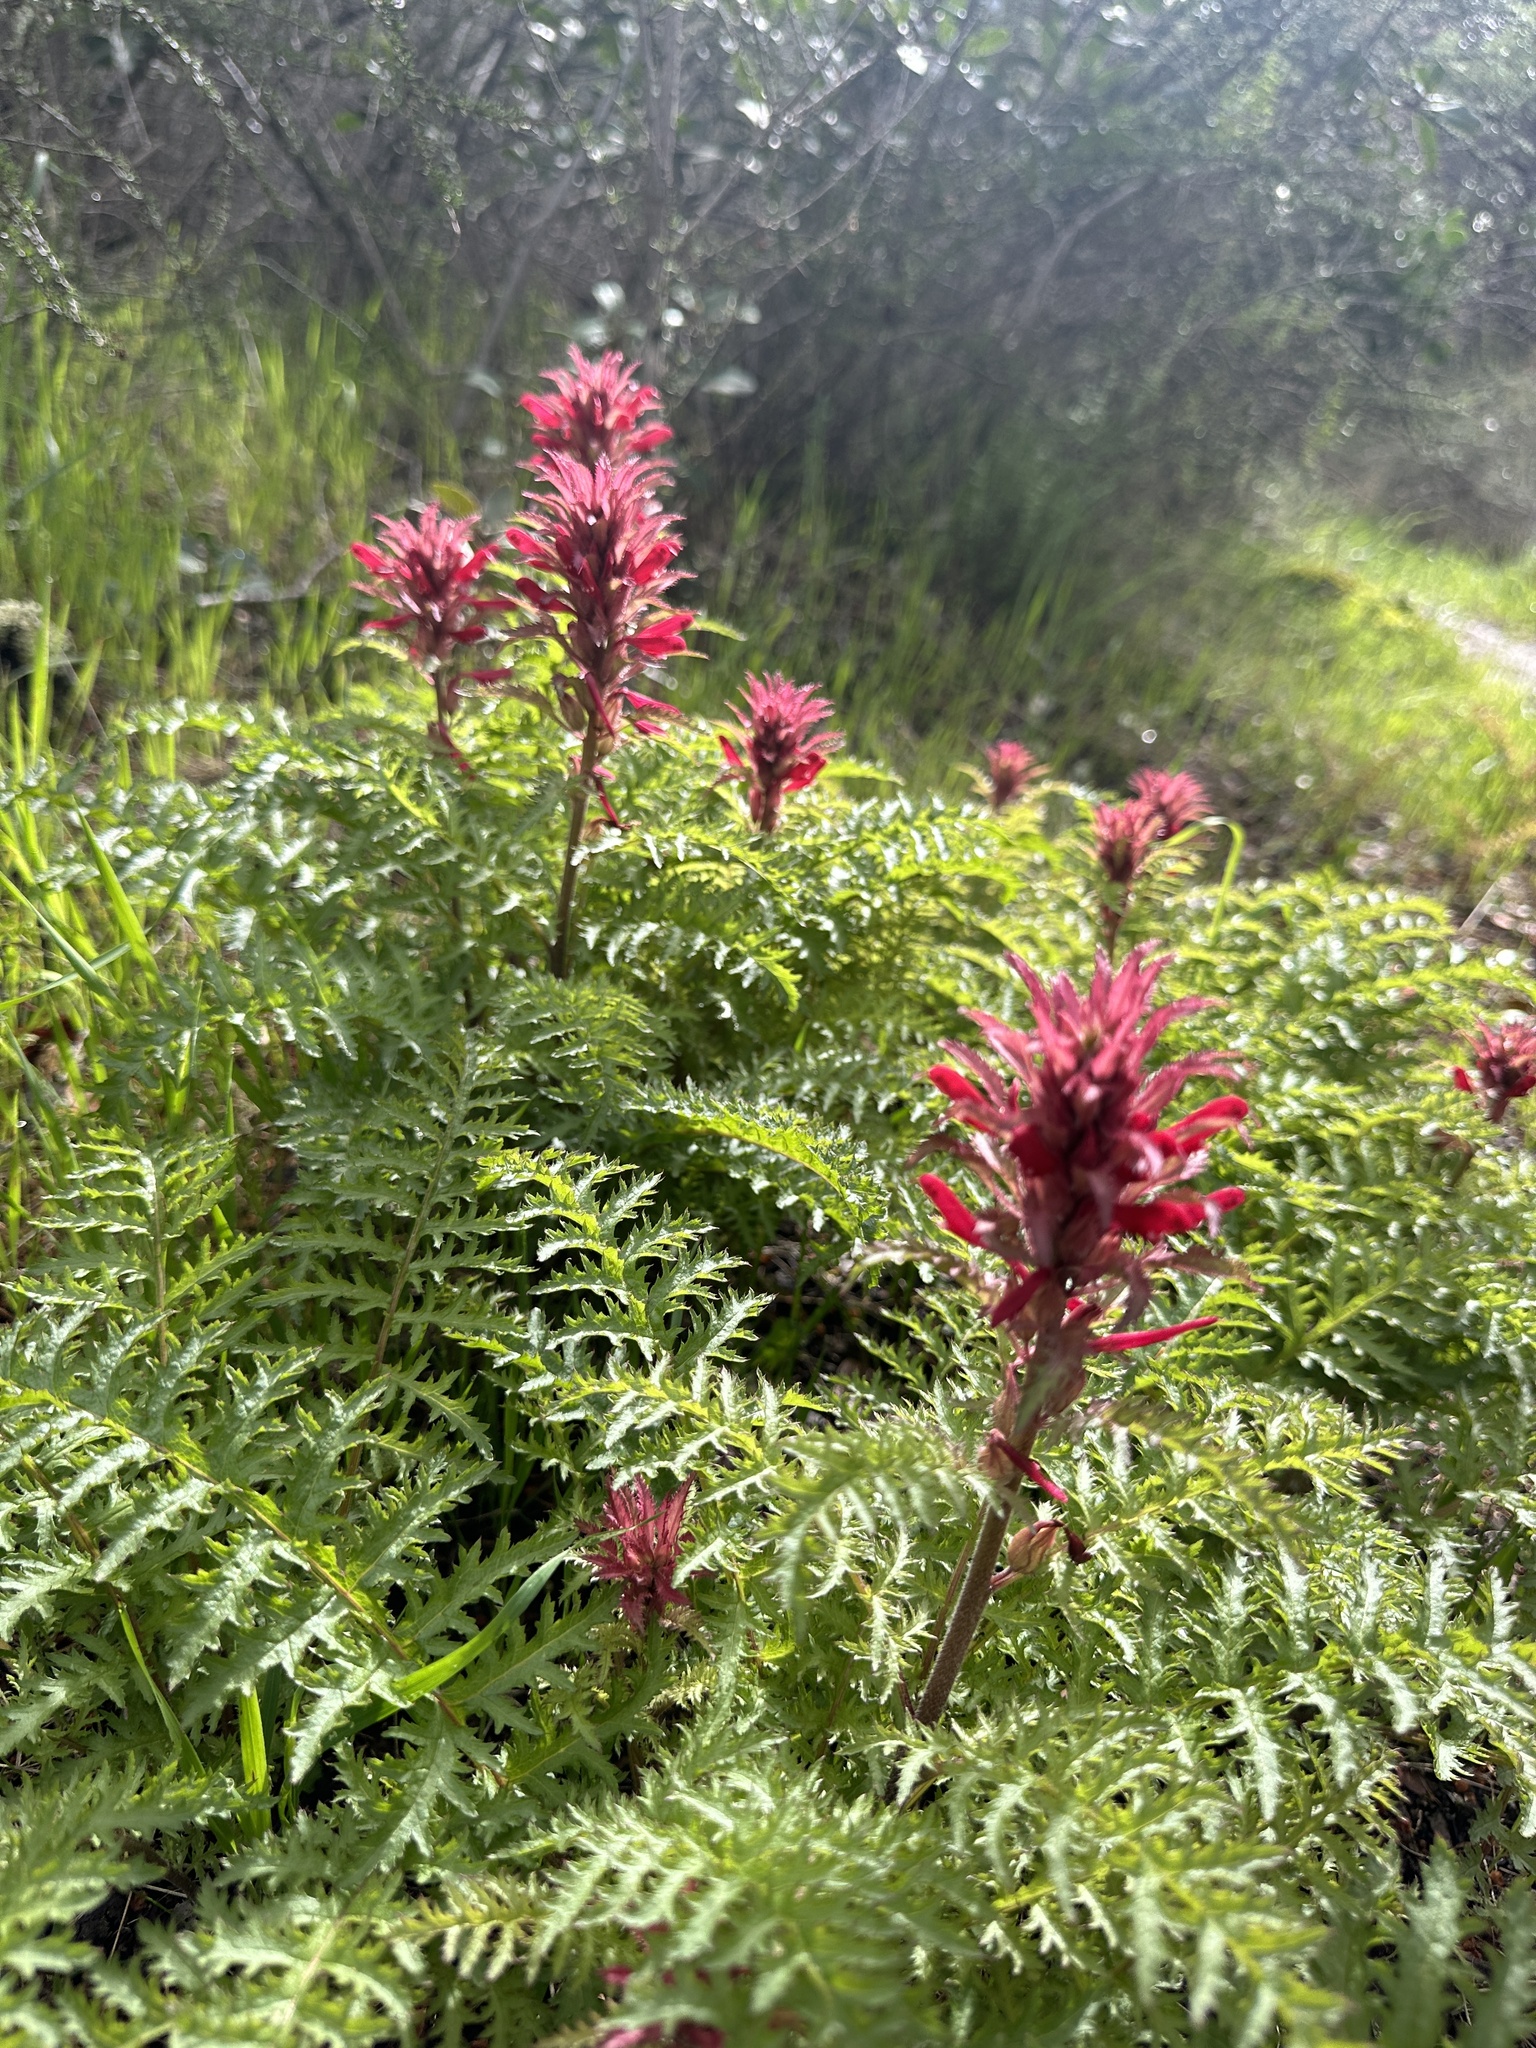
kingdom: Plantae
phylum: Tracheophyta
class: Magnoliopsida
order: Lamiales
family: Orobanchaceae
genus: Pedicularis
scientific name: Pedicularis densiflora
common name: Indian warrior
